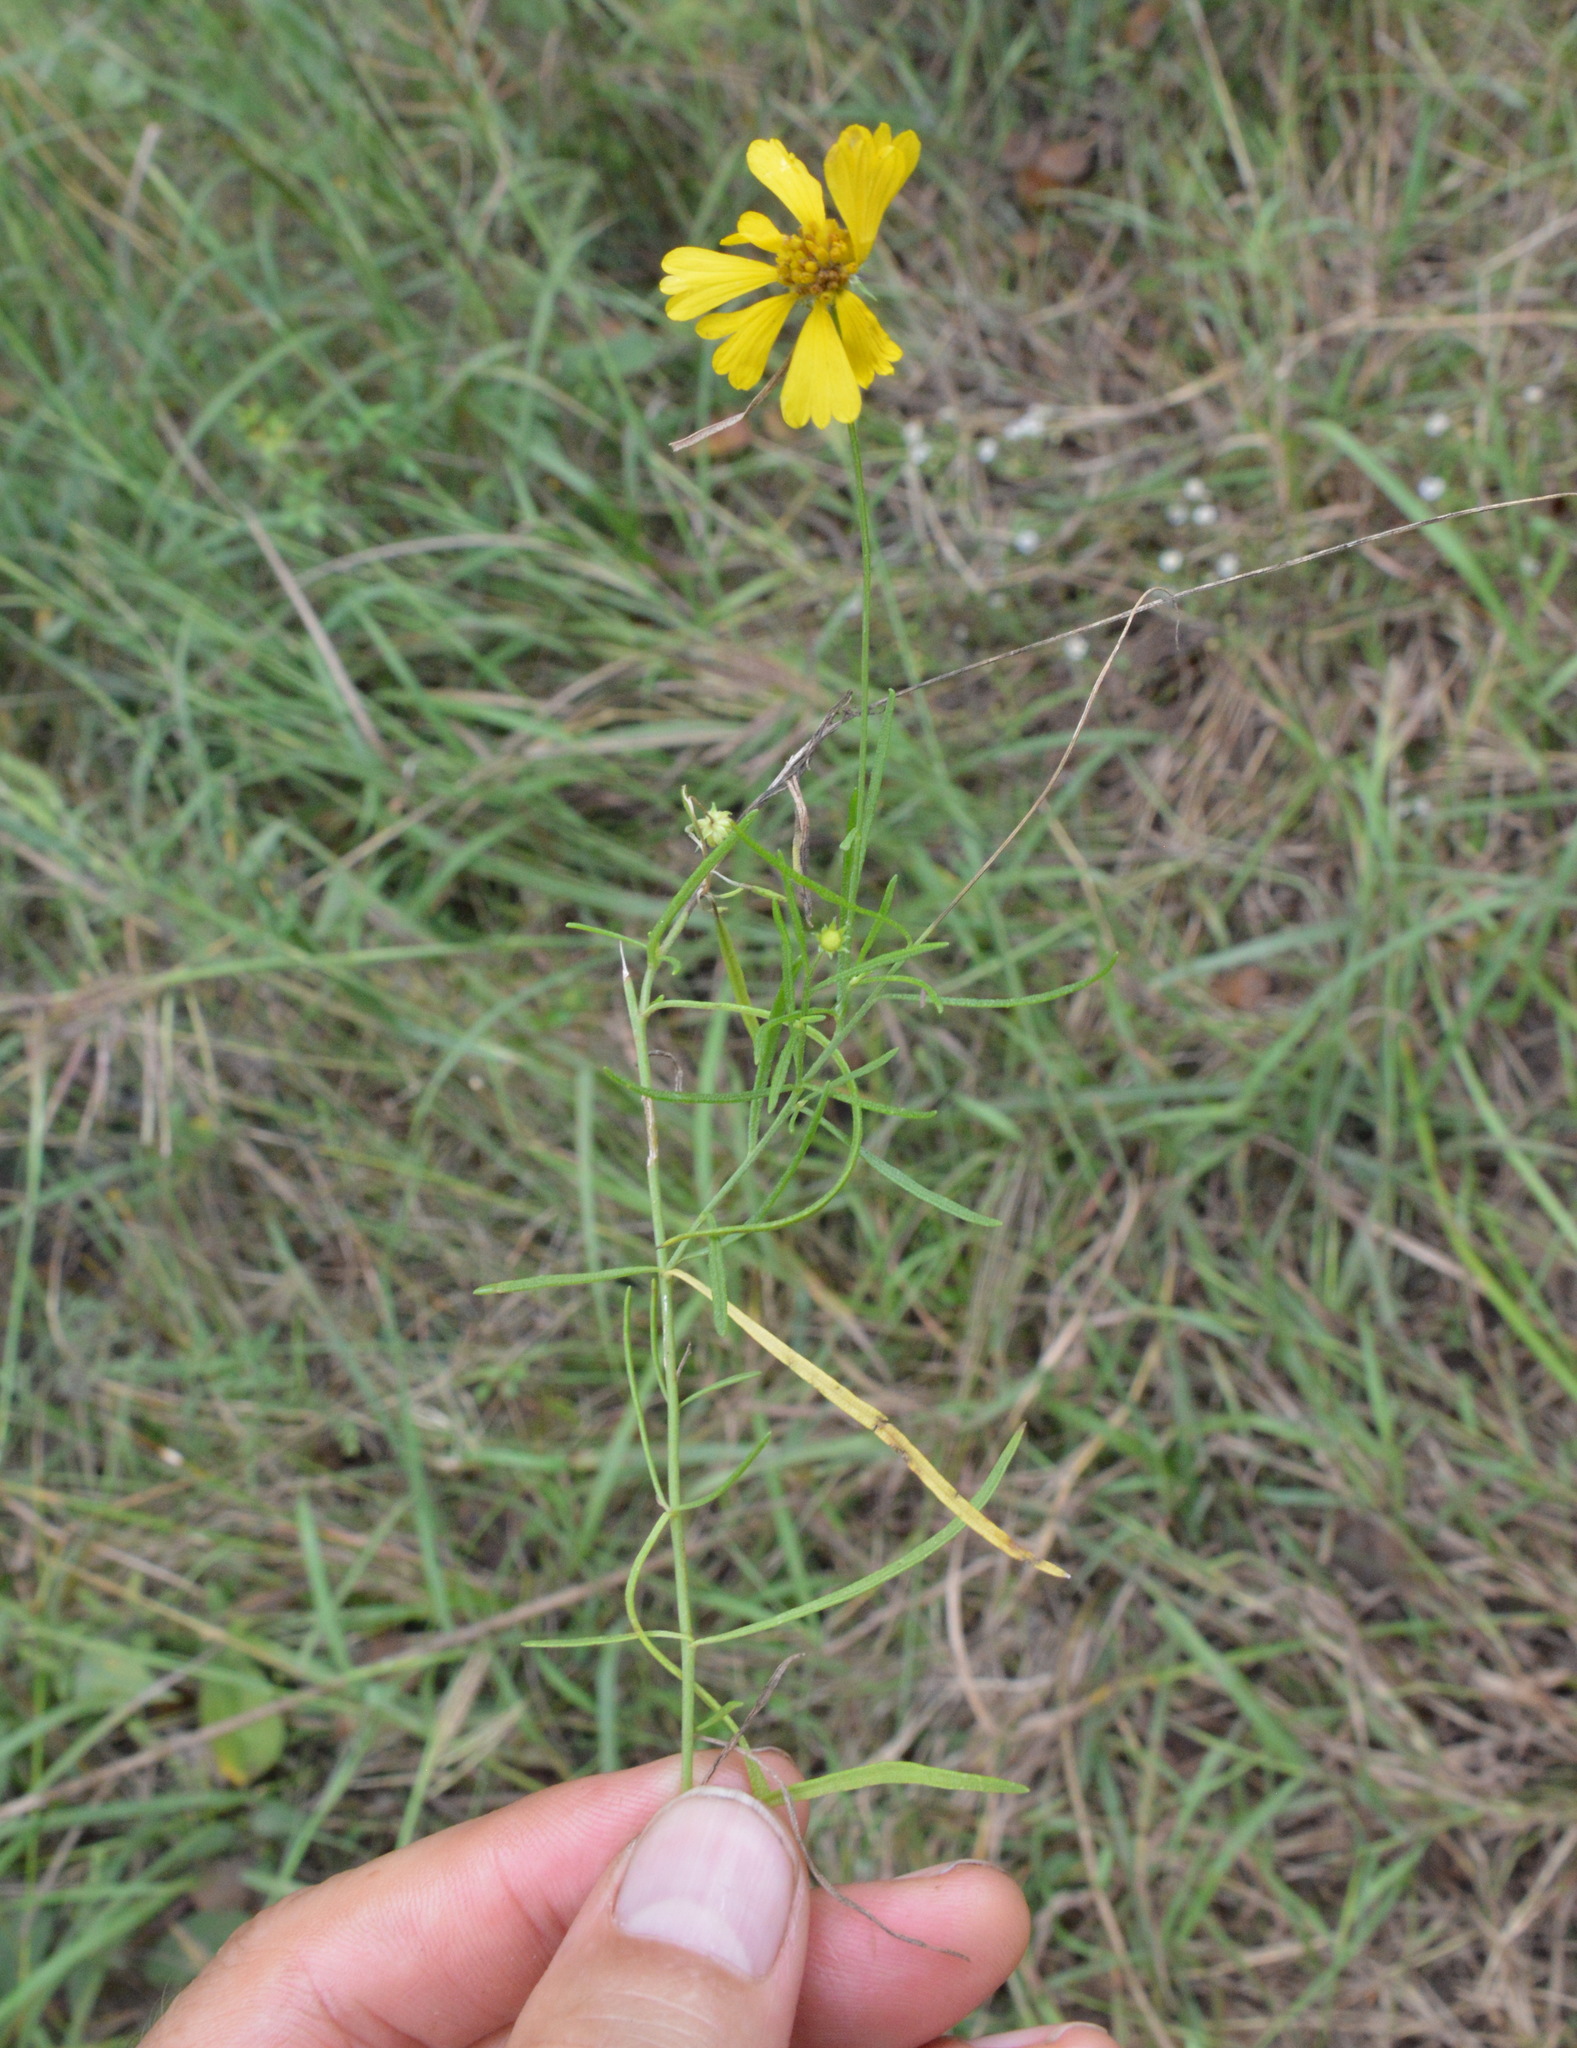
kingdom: Plantae
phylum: Tracheophyta
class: Magnoliopsida
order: Asterales
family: Asteraceae
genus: Helenium
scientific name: Helenium amarum
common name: Bitter sneezeweed
